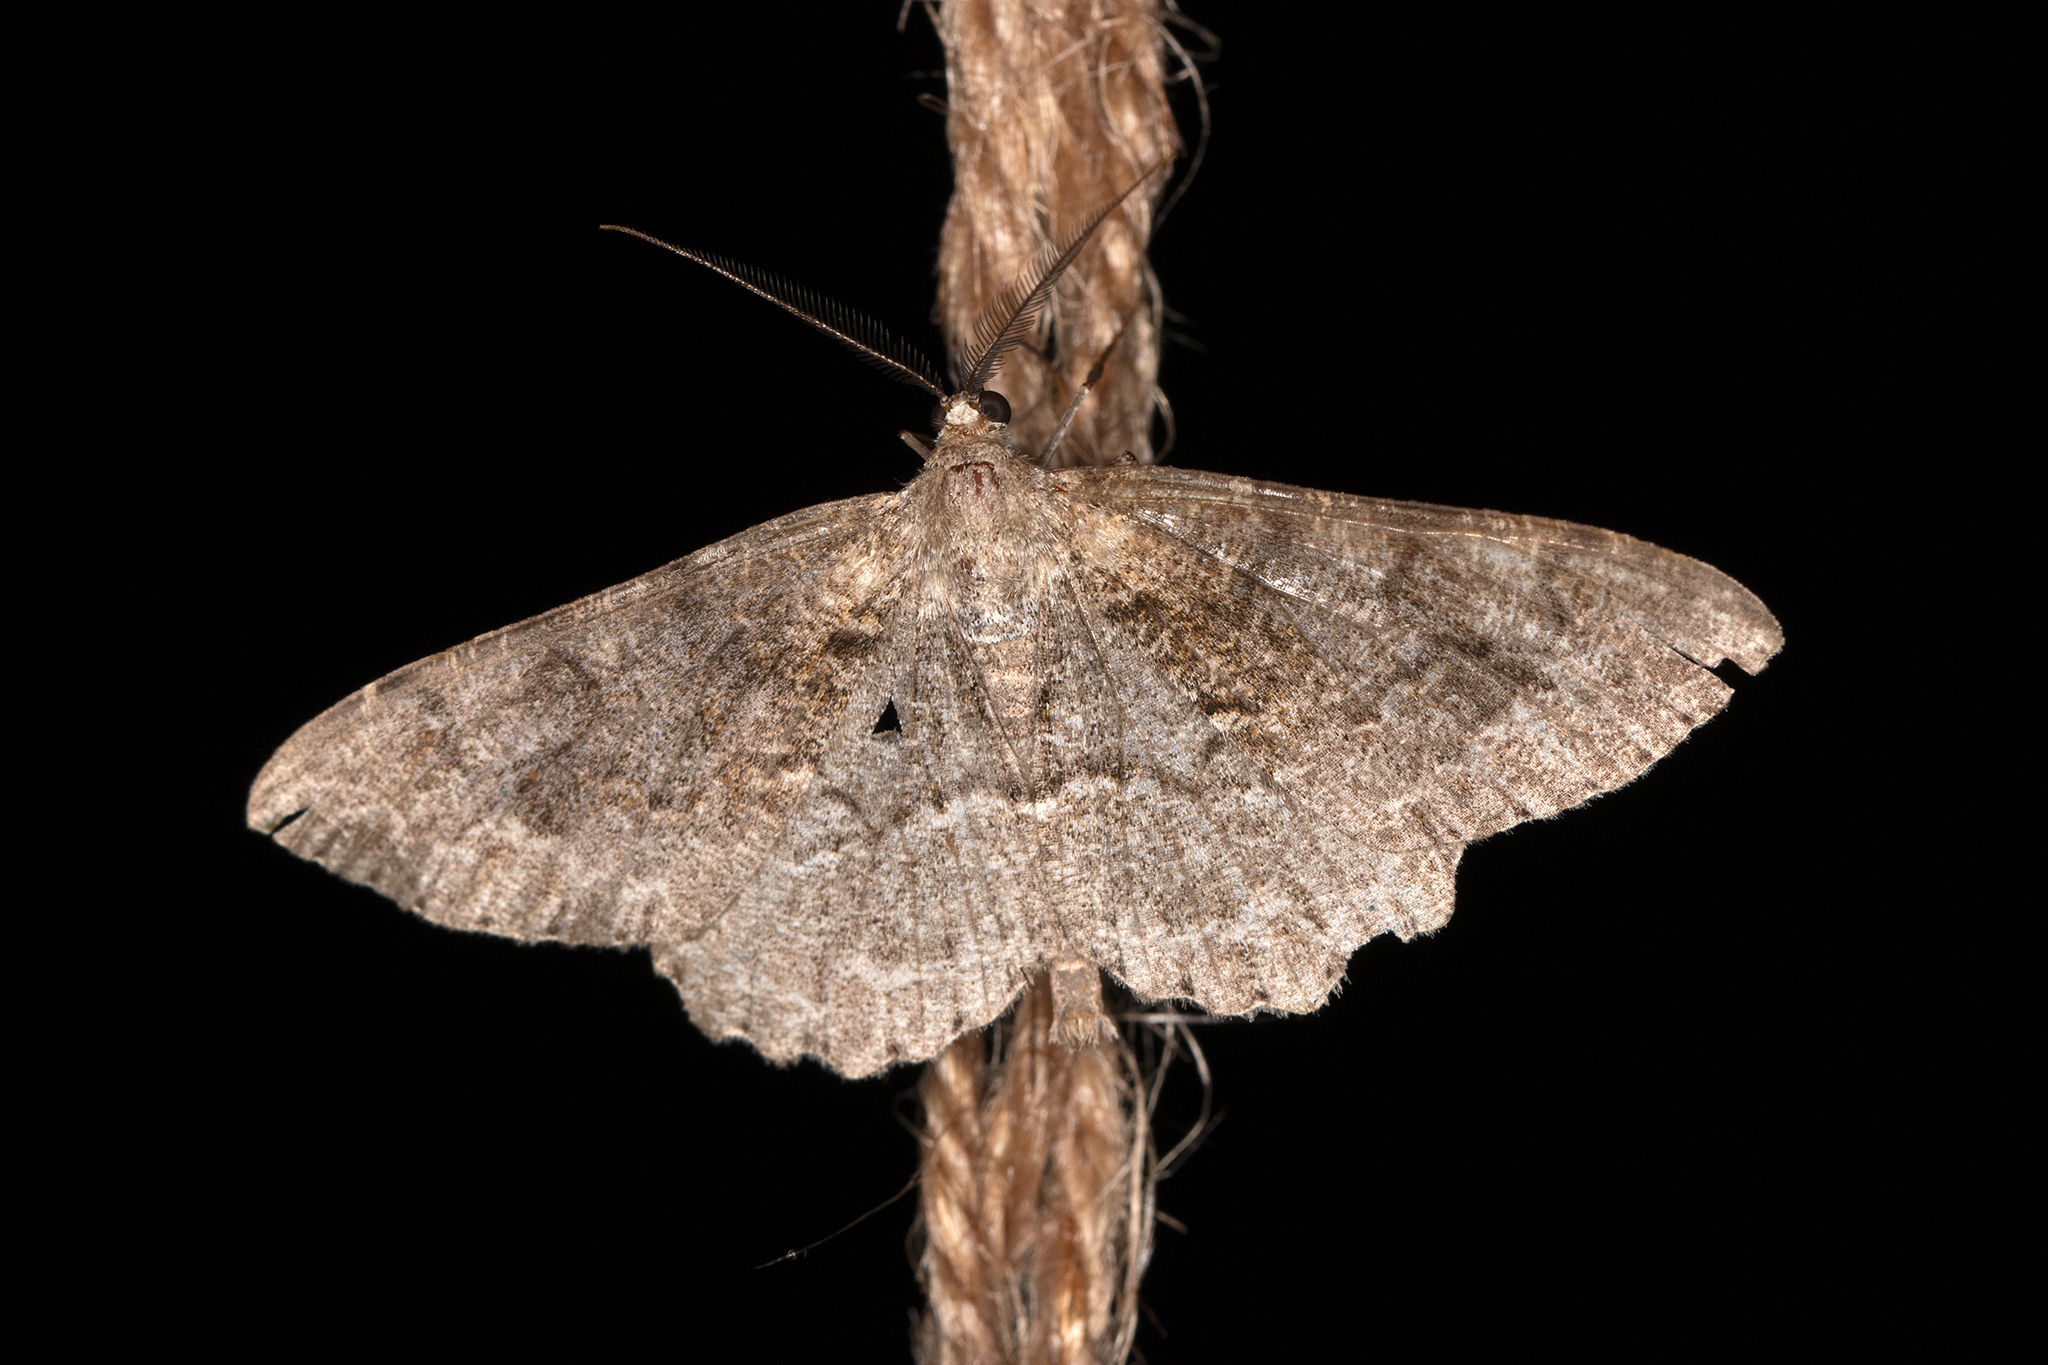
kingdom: Animalia
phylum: Arthropoda
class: Insecta
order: Lepidoptera
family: Geometridae
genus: Alcis
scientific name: Alcis repandata
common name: Mottled beauty
